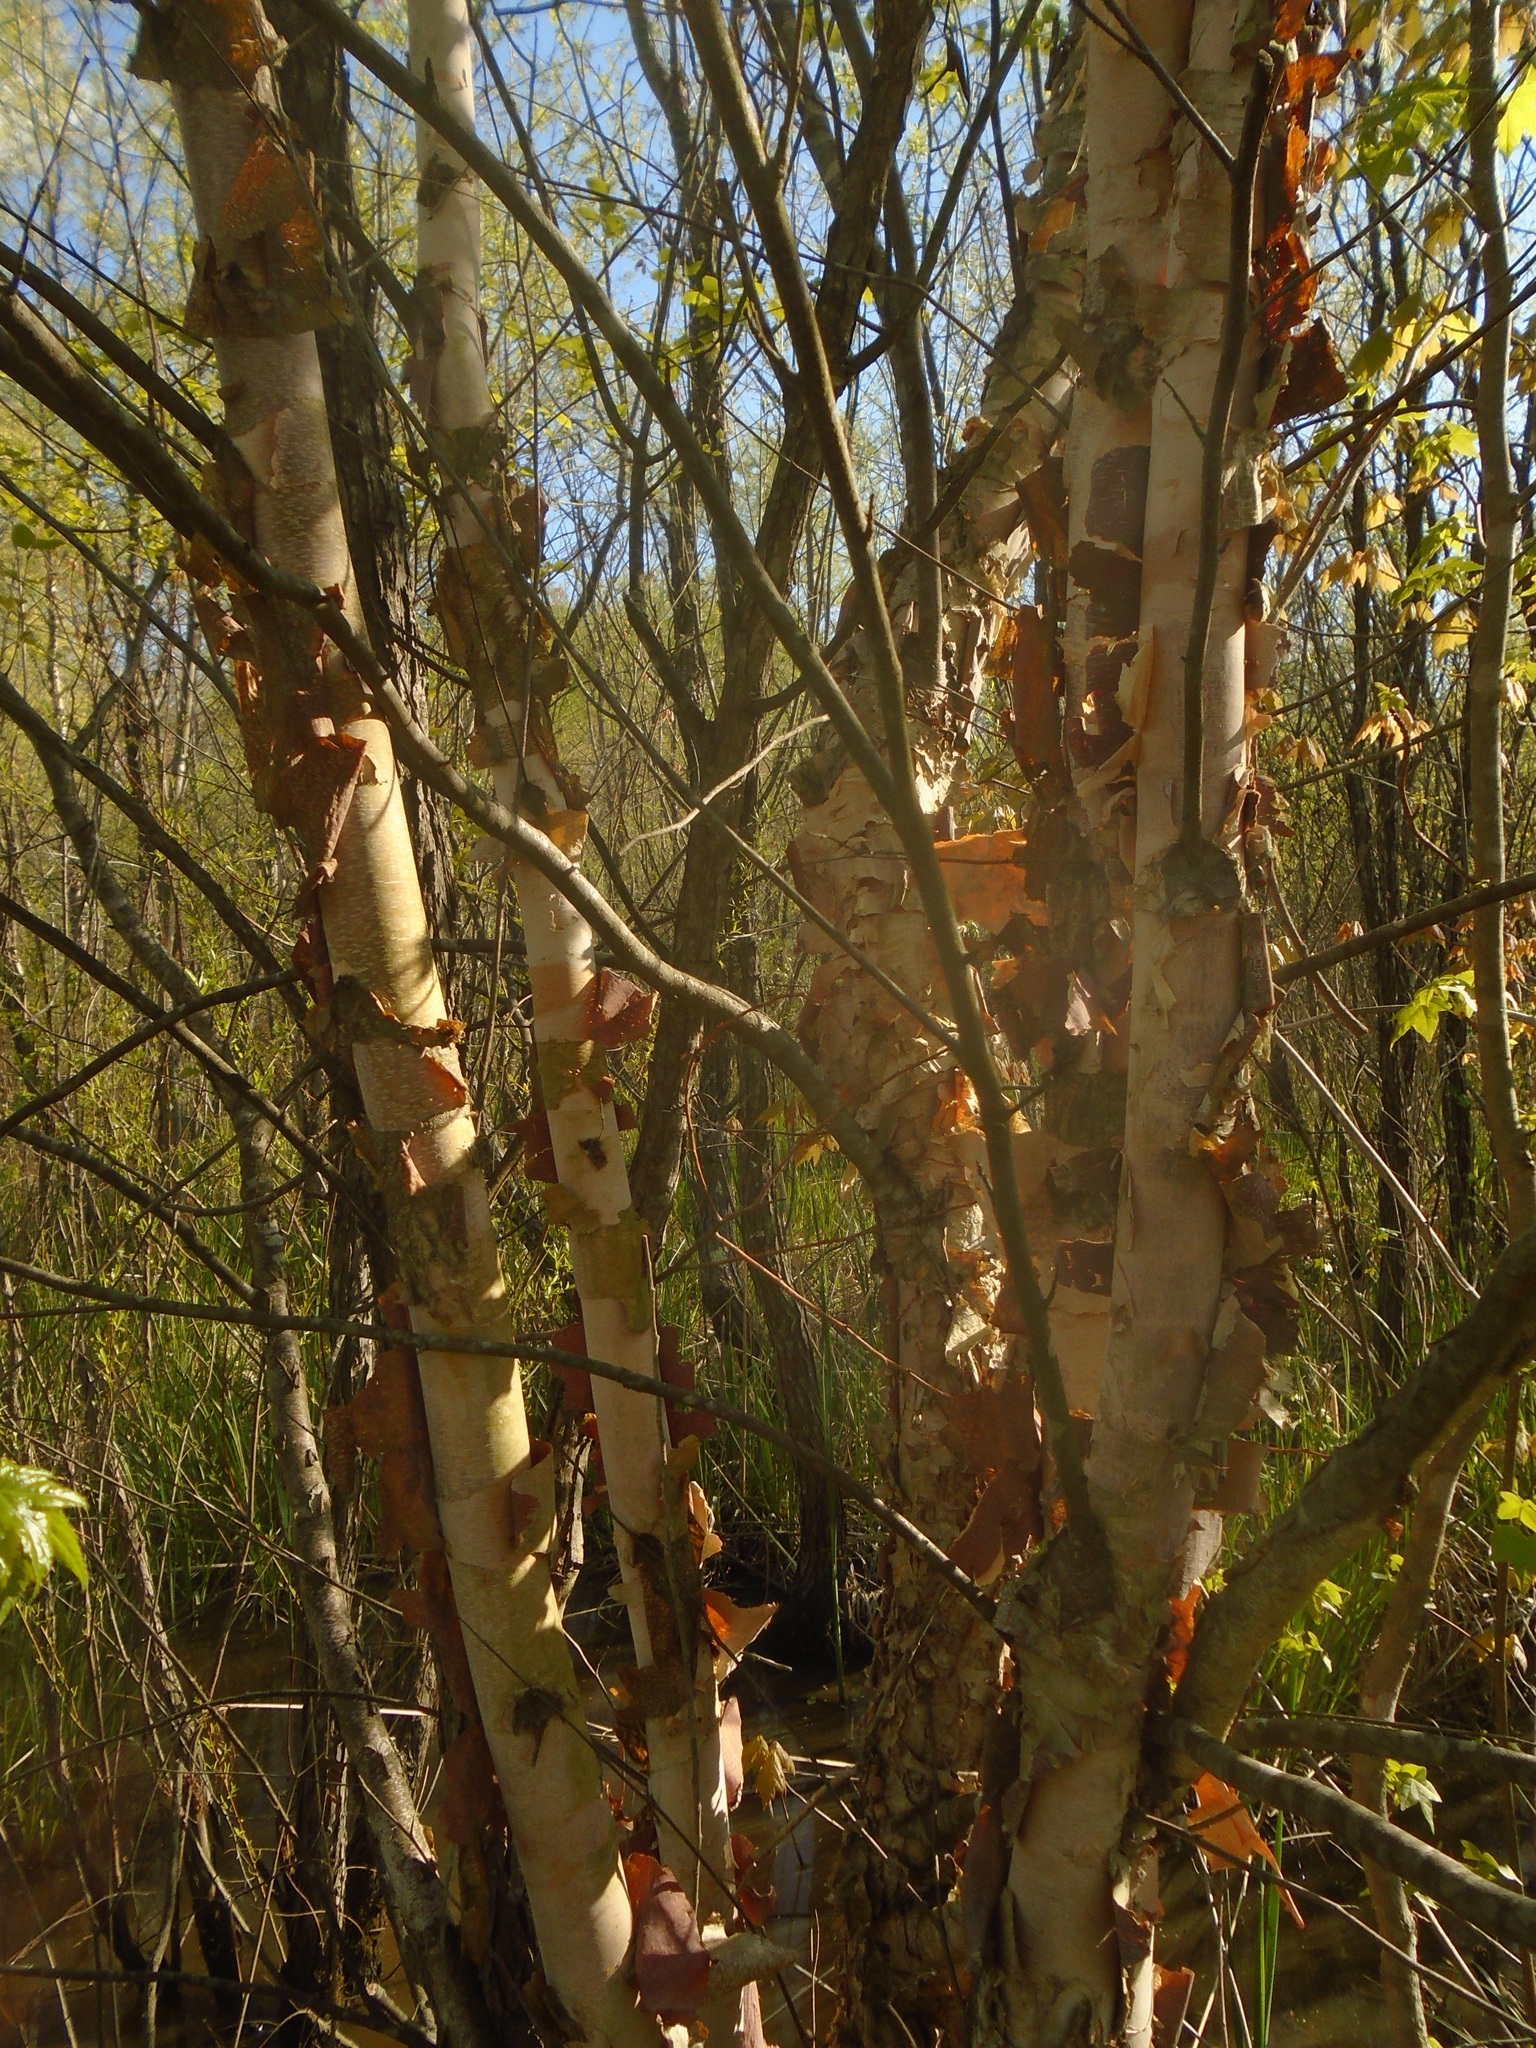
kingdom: Plantae
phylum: Tracheophyta
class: Magnoliopsida
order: Fagales
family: Betulaceae
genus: Betula
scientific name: Betula nigra
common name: Black birch
